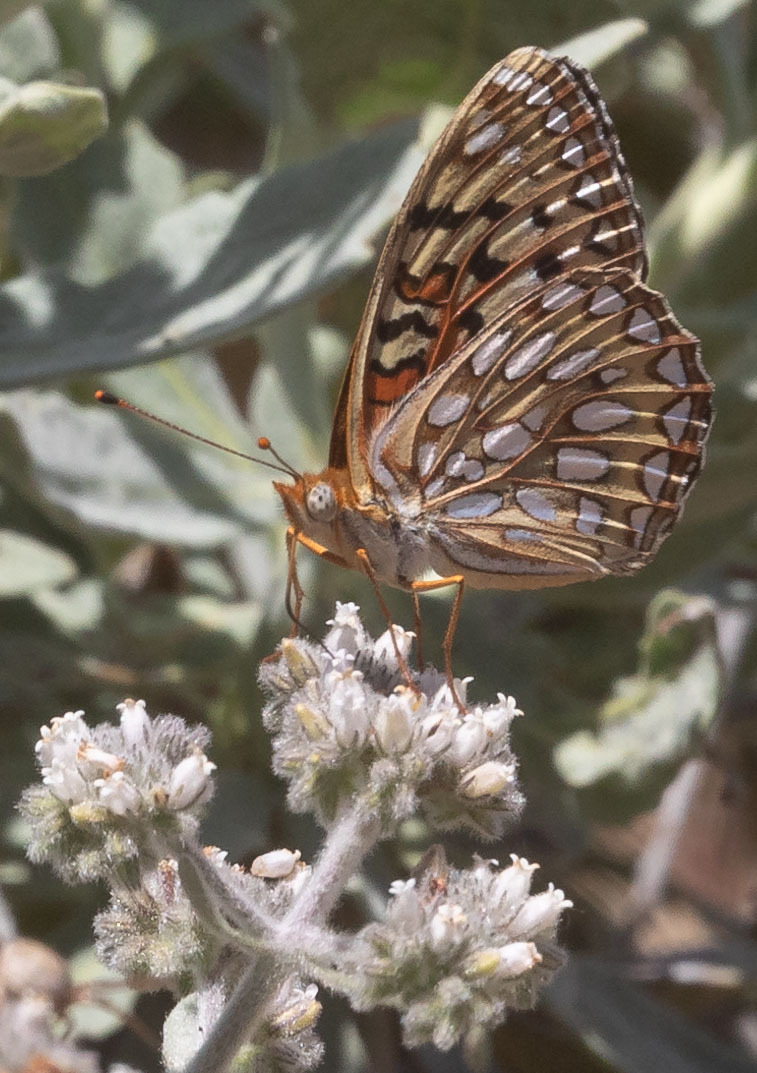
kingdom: Animalia
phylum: Arthropoda
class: Insecta
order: Lepidoptera
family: Nymphalidae
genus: Speyeria
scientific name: Speyeria callippe
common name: Callippe fritillary
